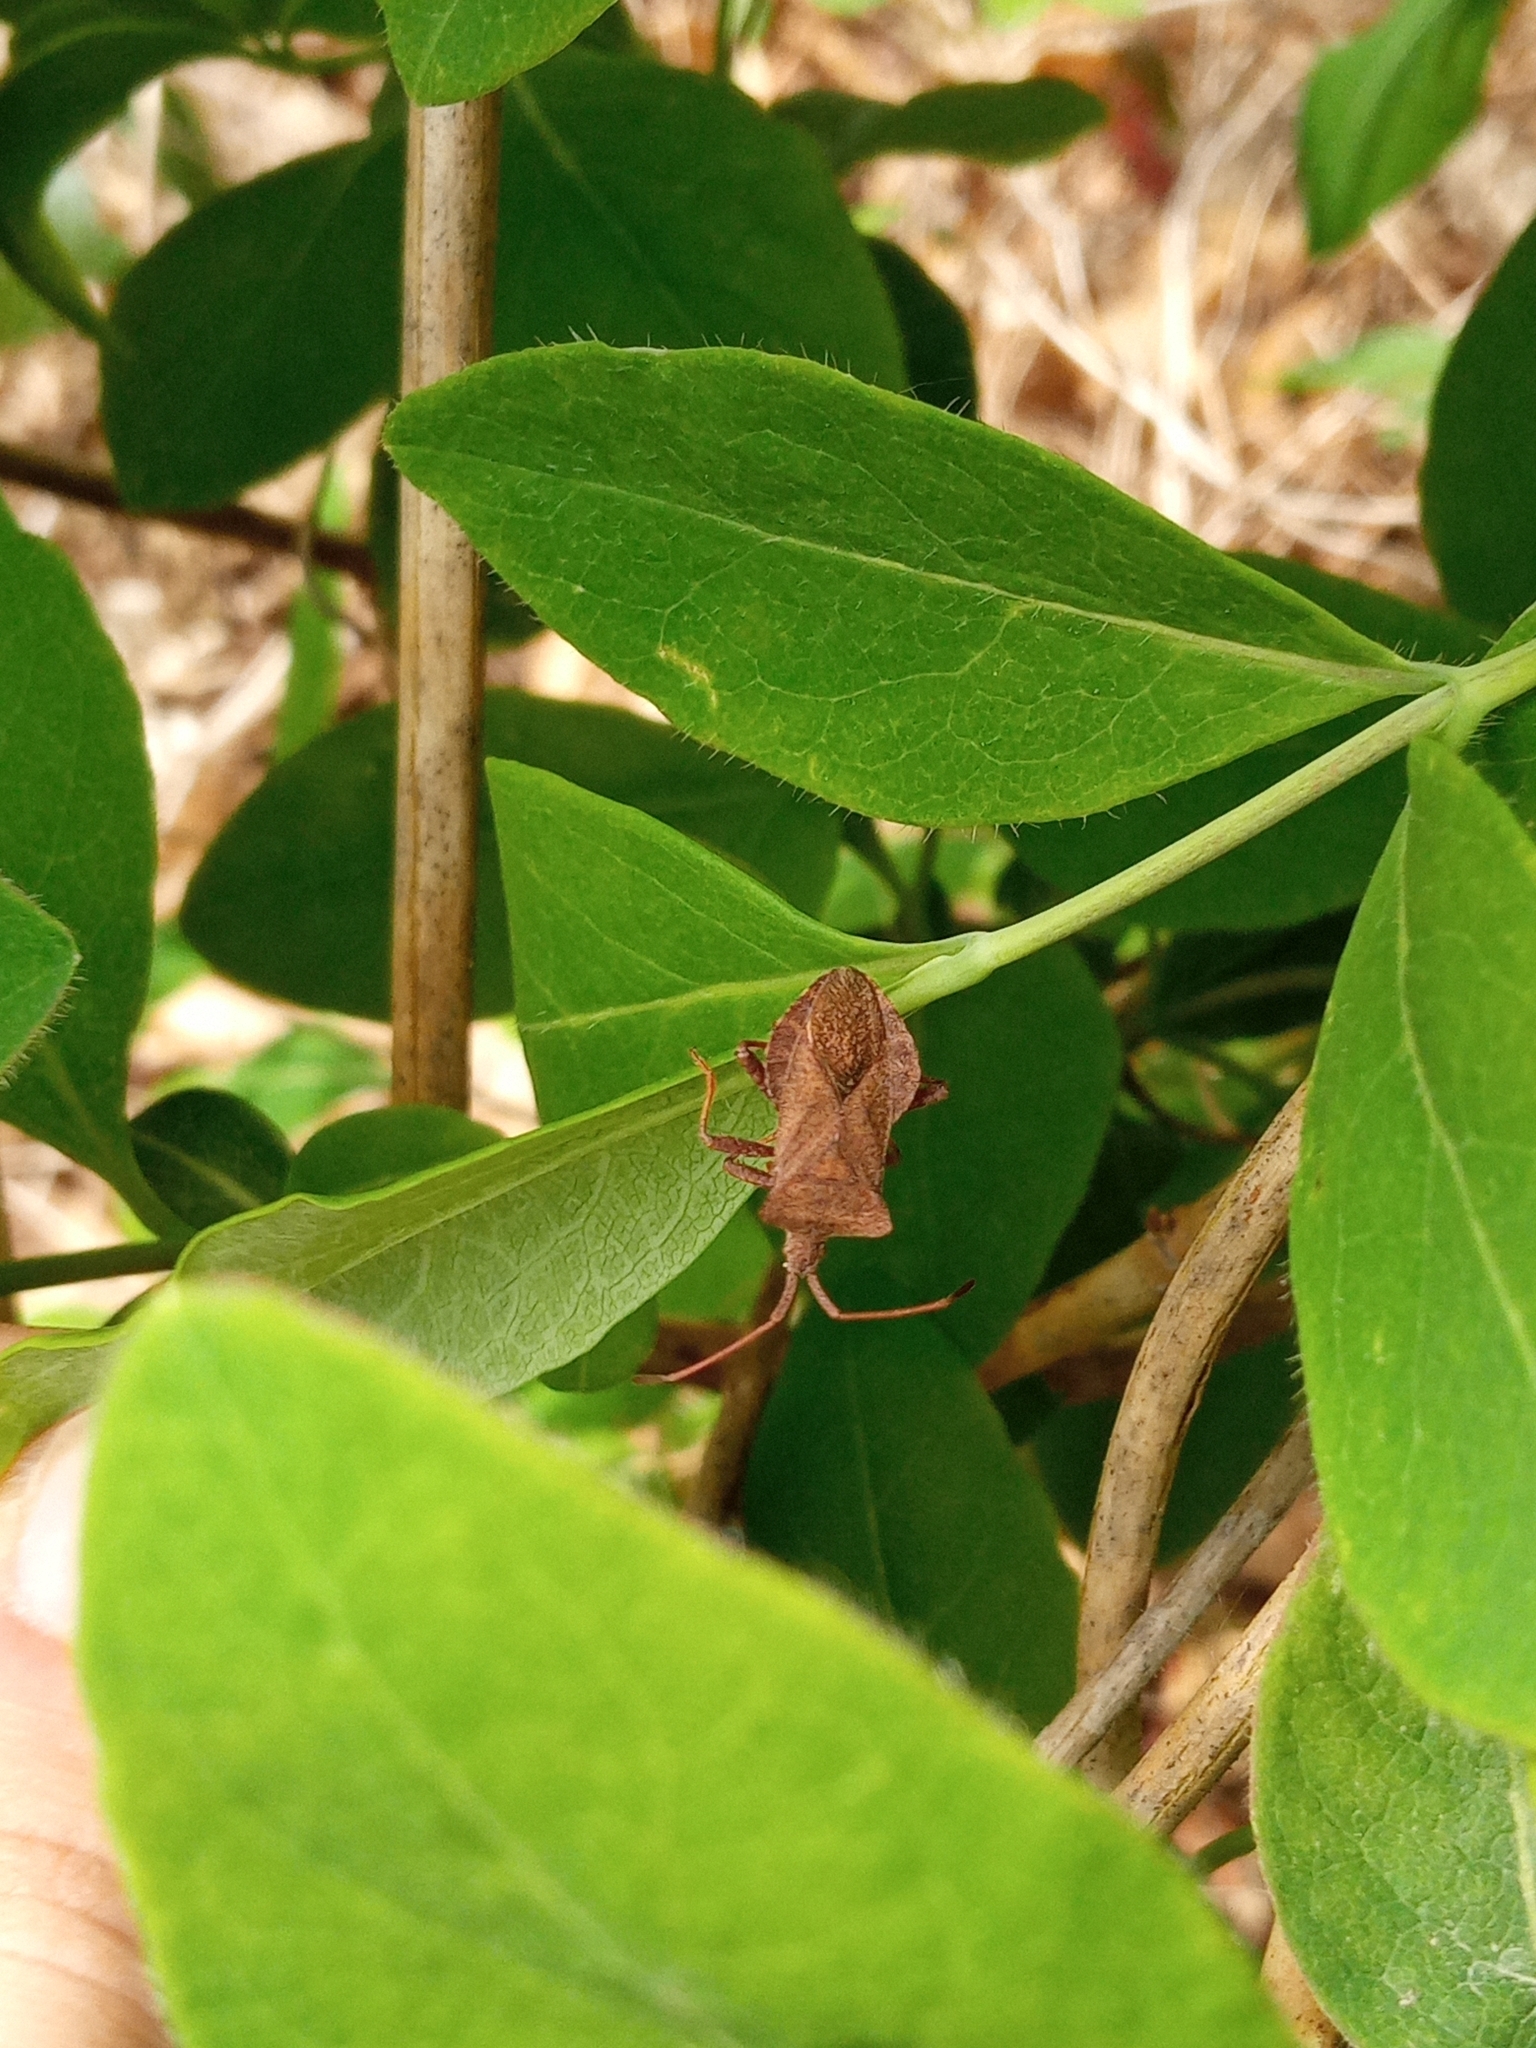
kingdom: Animalia
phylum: Arthropoda
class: Insecta
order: Hemiptera
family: Coreidae
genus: Coreus
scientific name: Coreus marginatus
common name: Dock bug
